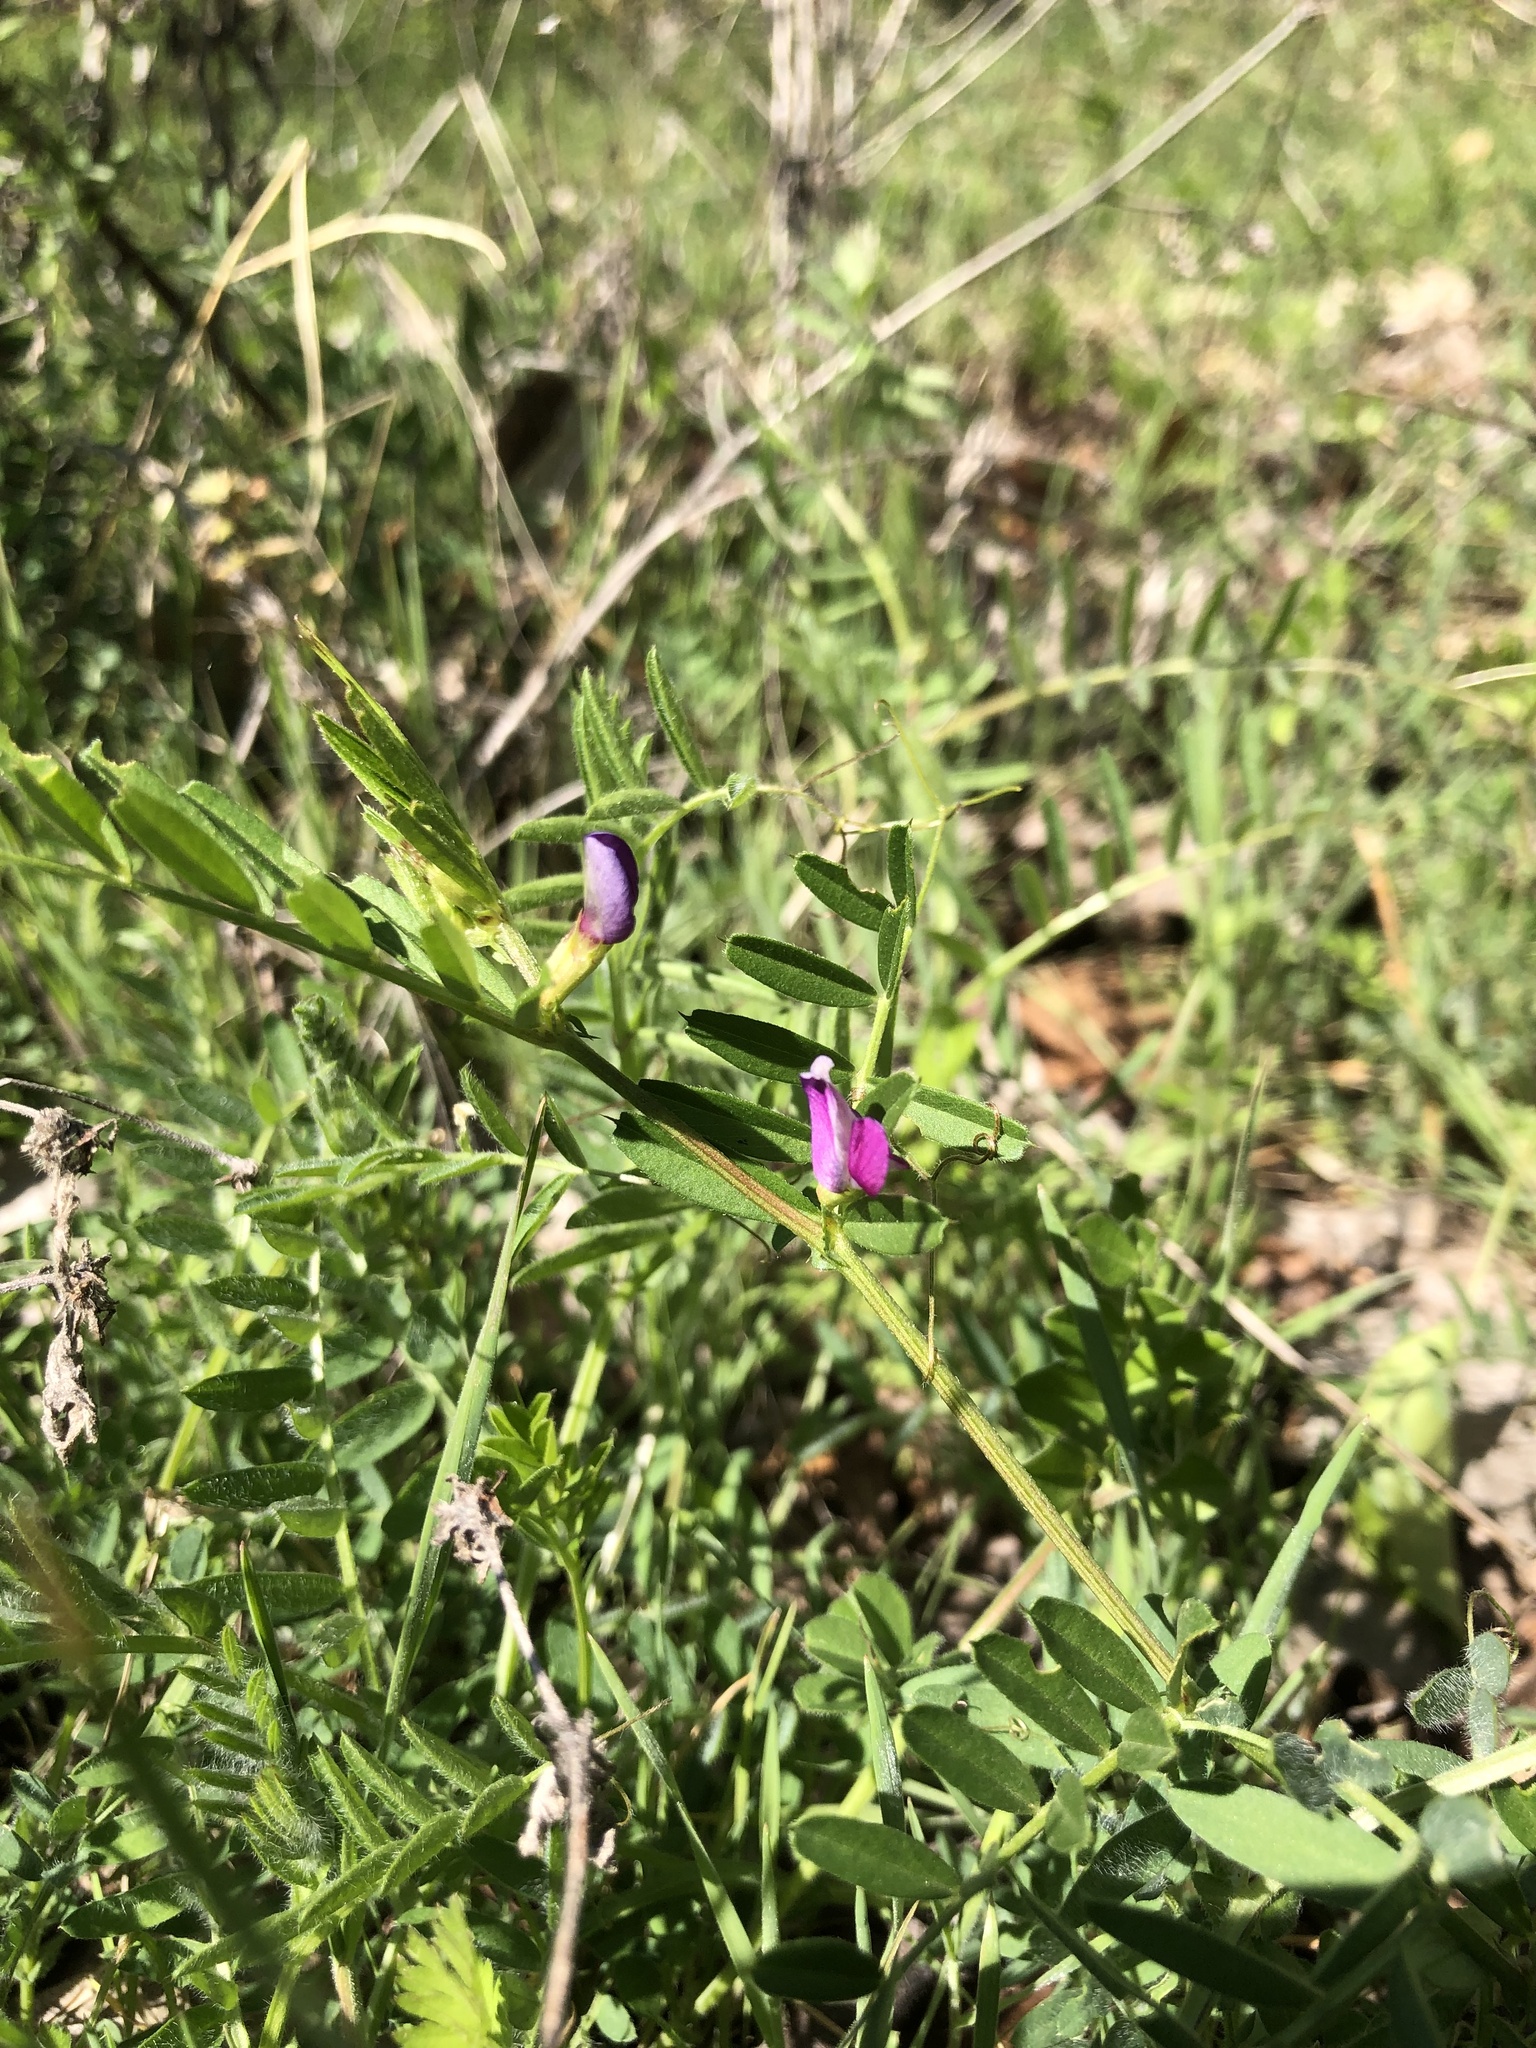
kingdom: Plantae
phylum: Tracheophyta
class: Magnoliopsida
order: Fabales
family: Fabaceae
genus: Vicia
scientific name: Vicia sativa
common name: Garden vetch
